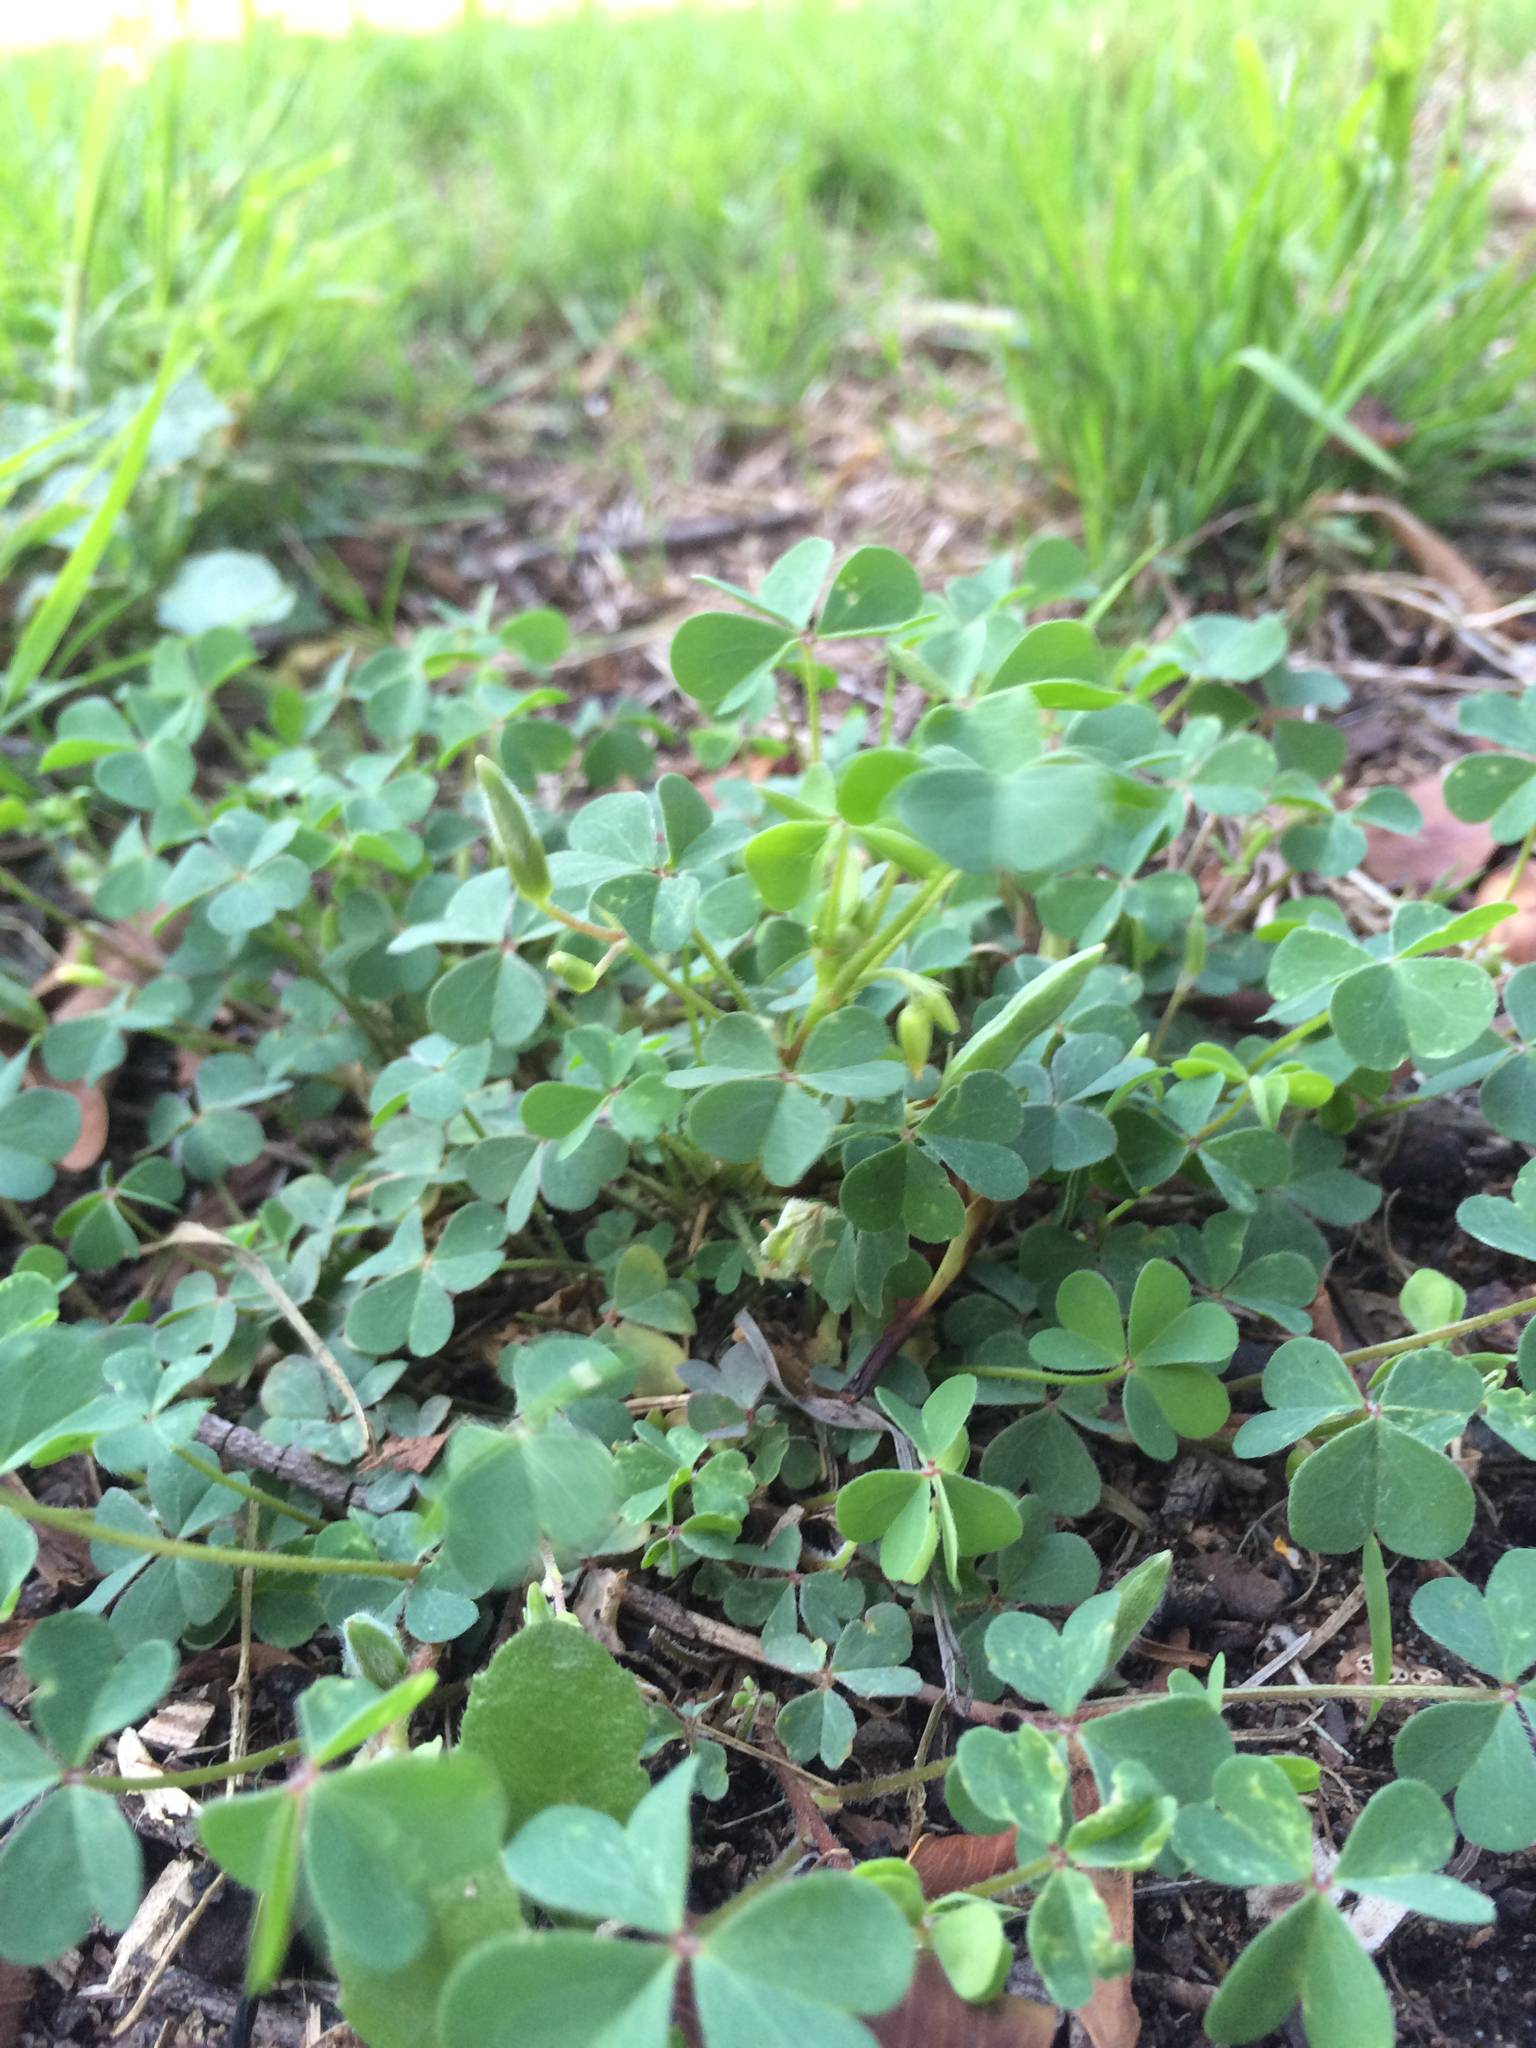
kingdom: Plantae
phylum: Tracheophyta
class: Magnoliopsida
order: Oxalidales
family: Oxalidaceae
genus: Oxalis
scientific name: Oxalis corniculata
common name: Procumbent yellow-sorrel
